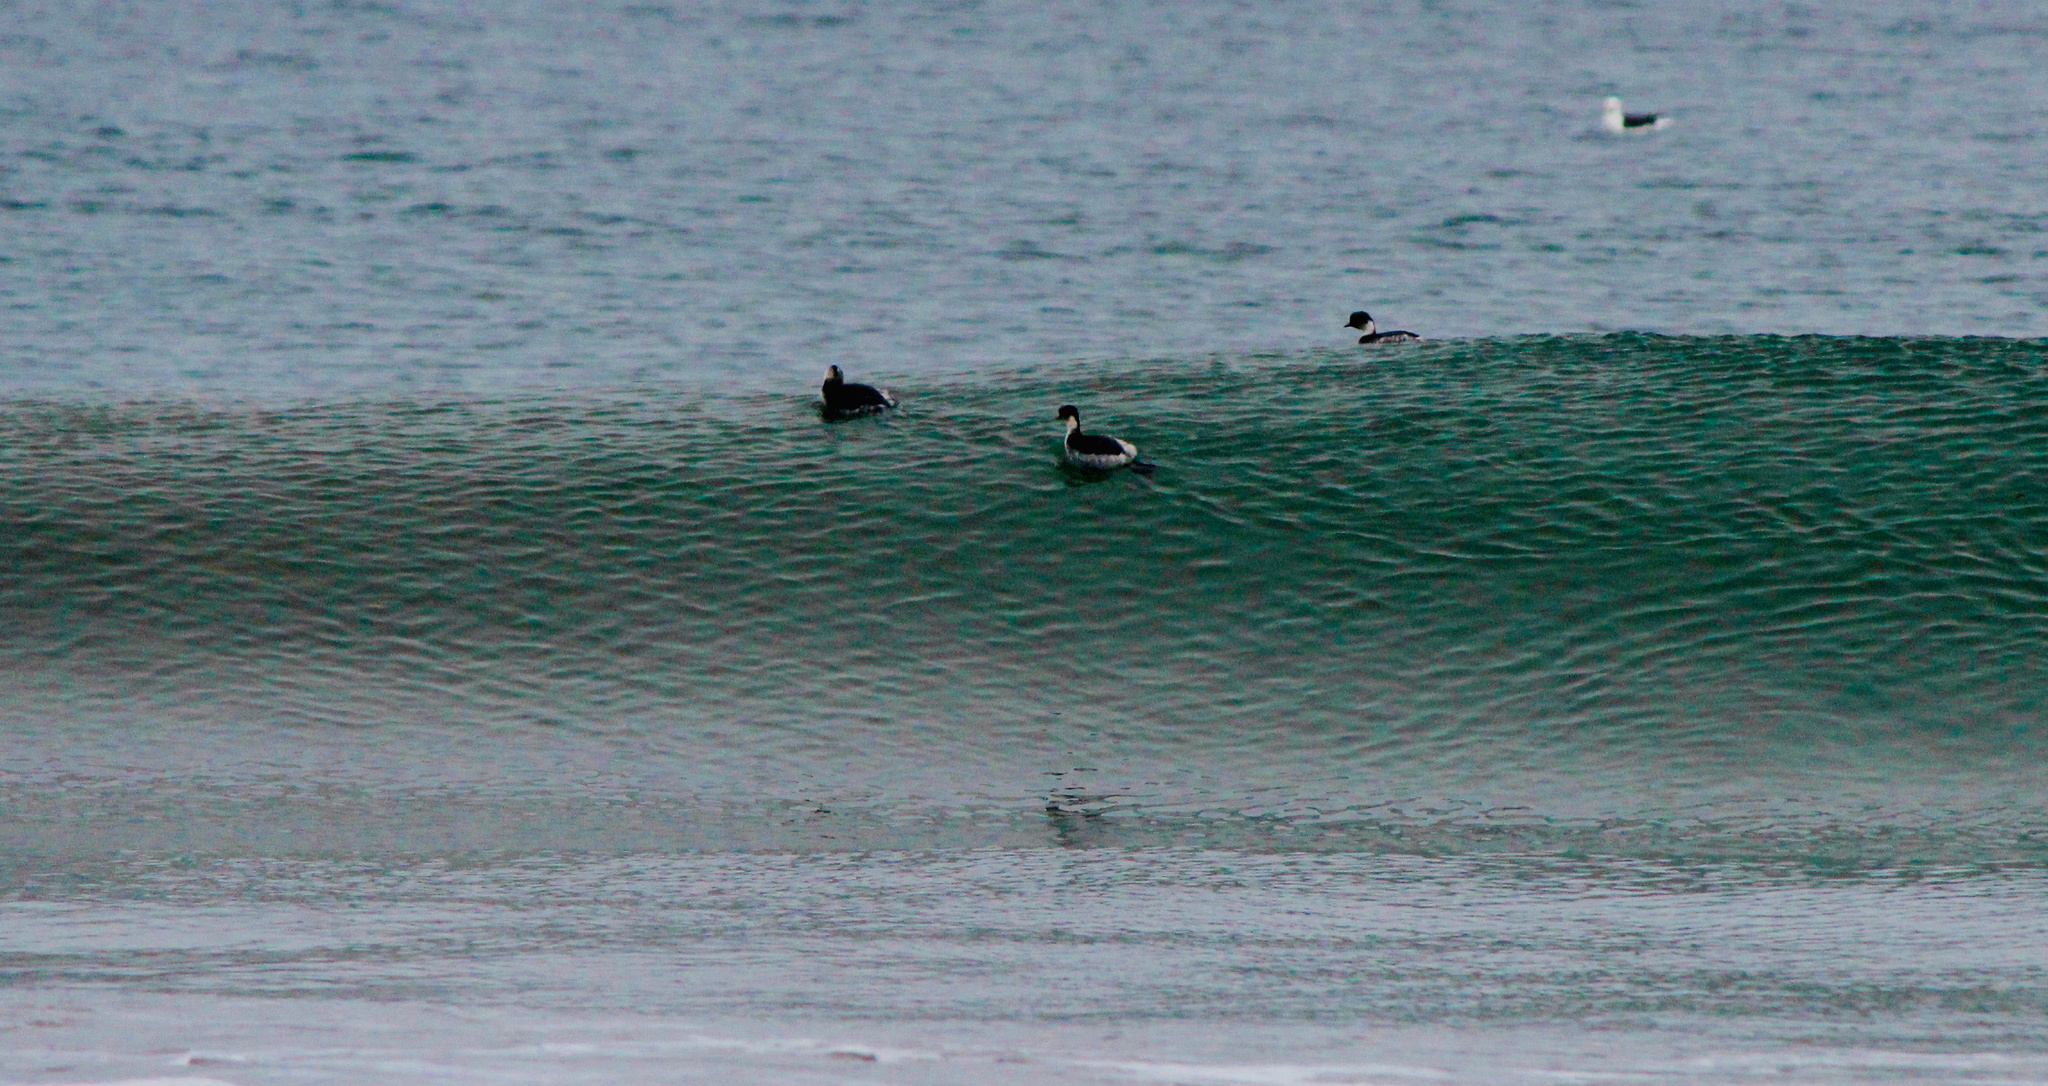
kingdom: Animalia
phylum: Chordata
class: Aves
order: Podicipediformes
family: Podicipedidae
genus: Podiceps
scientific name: Podiceps occipitalis
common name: Silvery grebe
